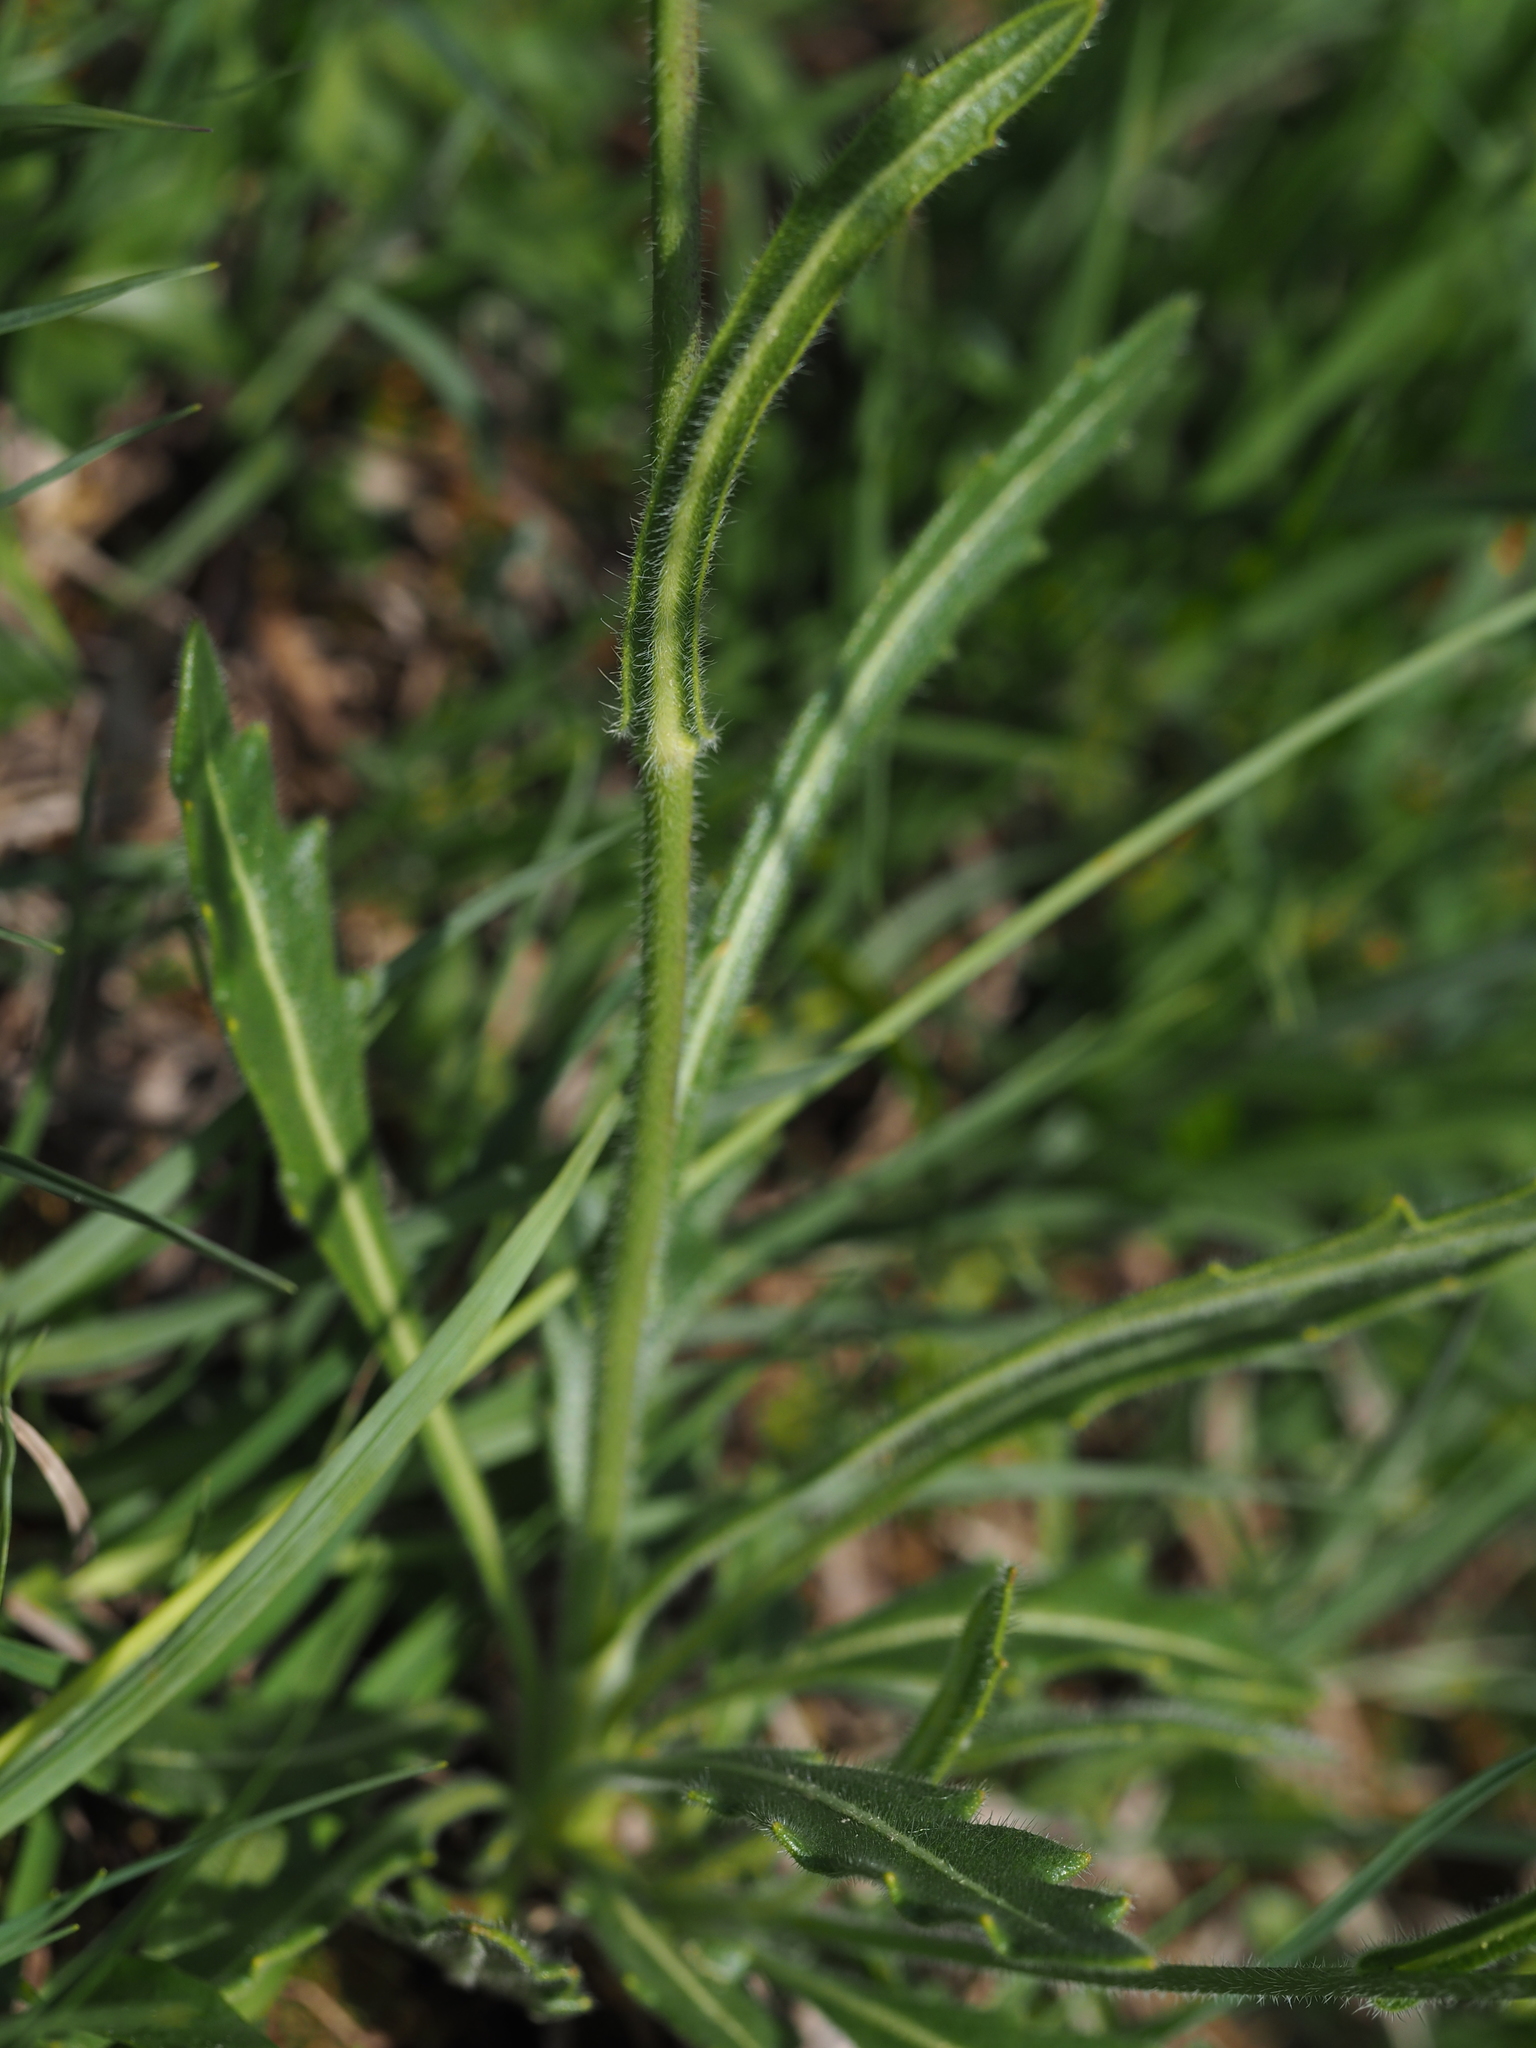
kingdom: Plantae
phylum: Tracheophyta
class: Magnoliopsida
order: Brassicales
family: Brassicaceae
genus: Biscutella
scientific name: Biscutella laevigata
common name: Buckler mustard
